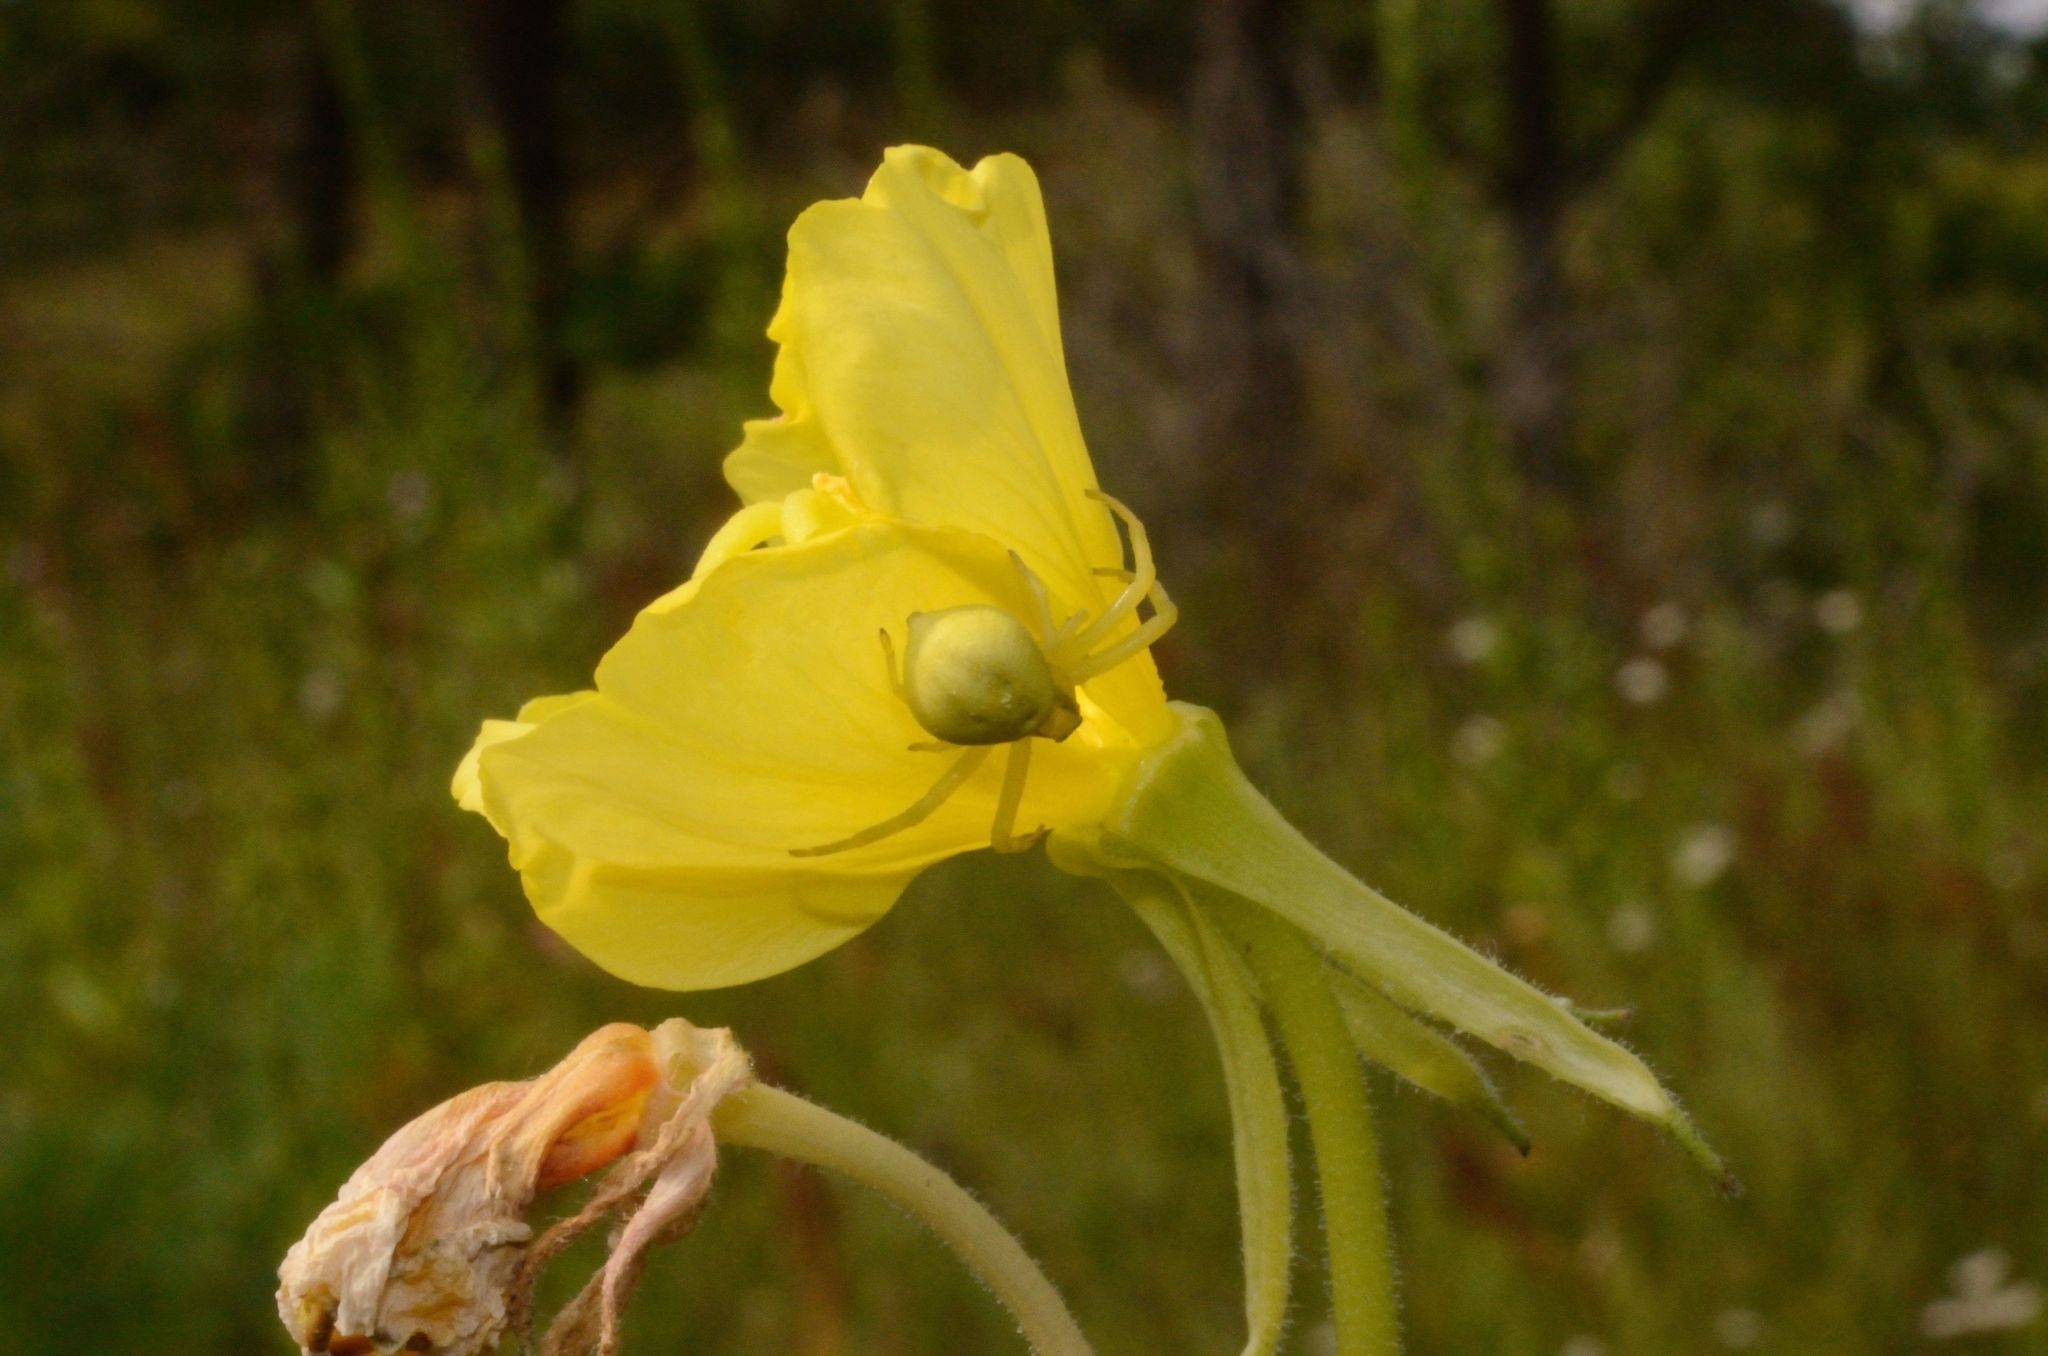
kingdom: Animalia
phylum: Arthropoda
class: Arachnida
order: Araneae
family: Thomisidae
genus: Misumena
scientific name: Misumena vatia
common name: Goldenrod crab spider
